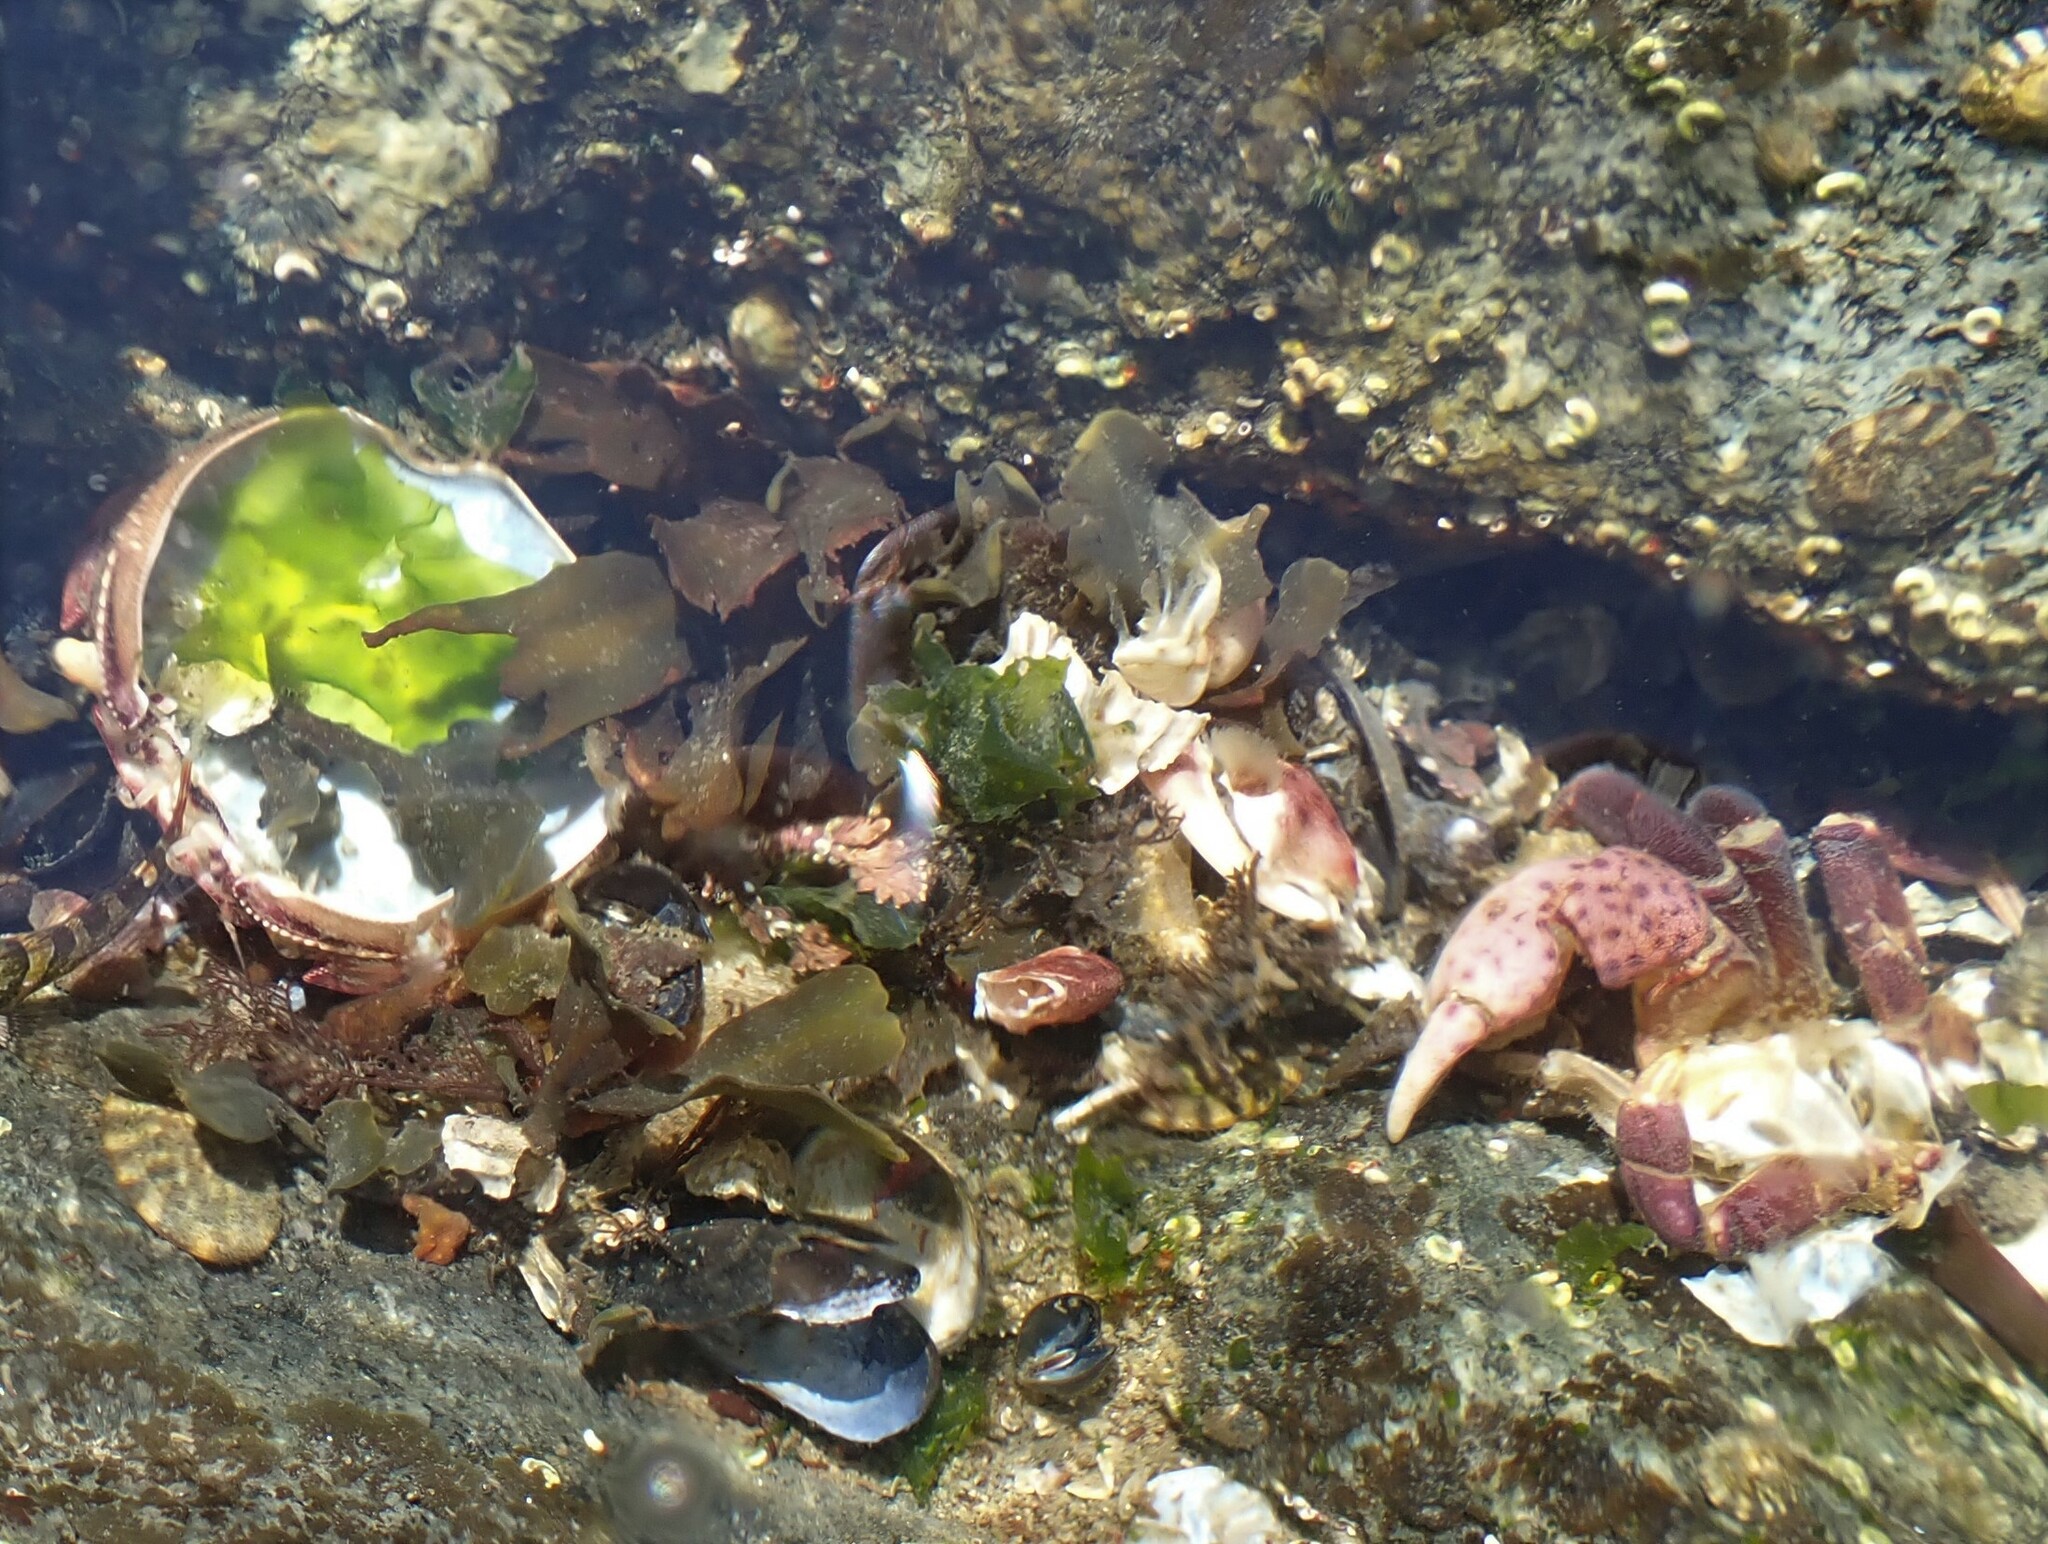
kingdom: Animalia
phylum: Arthropoda
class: Malacostraca
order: Decapoda
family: Varunidae
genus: Hemigrapsus
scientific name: Hemigrapsus nudus
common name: Purple shore crab
